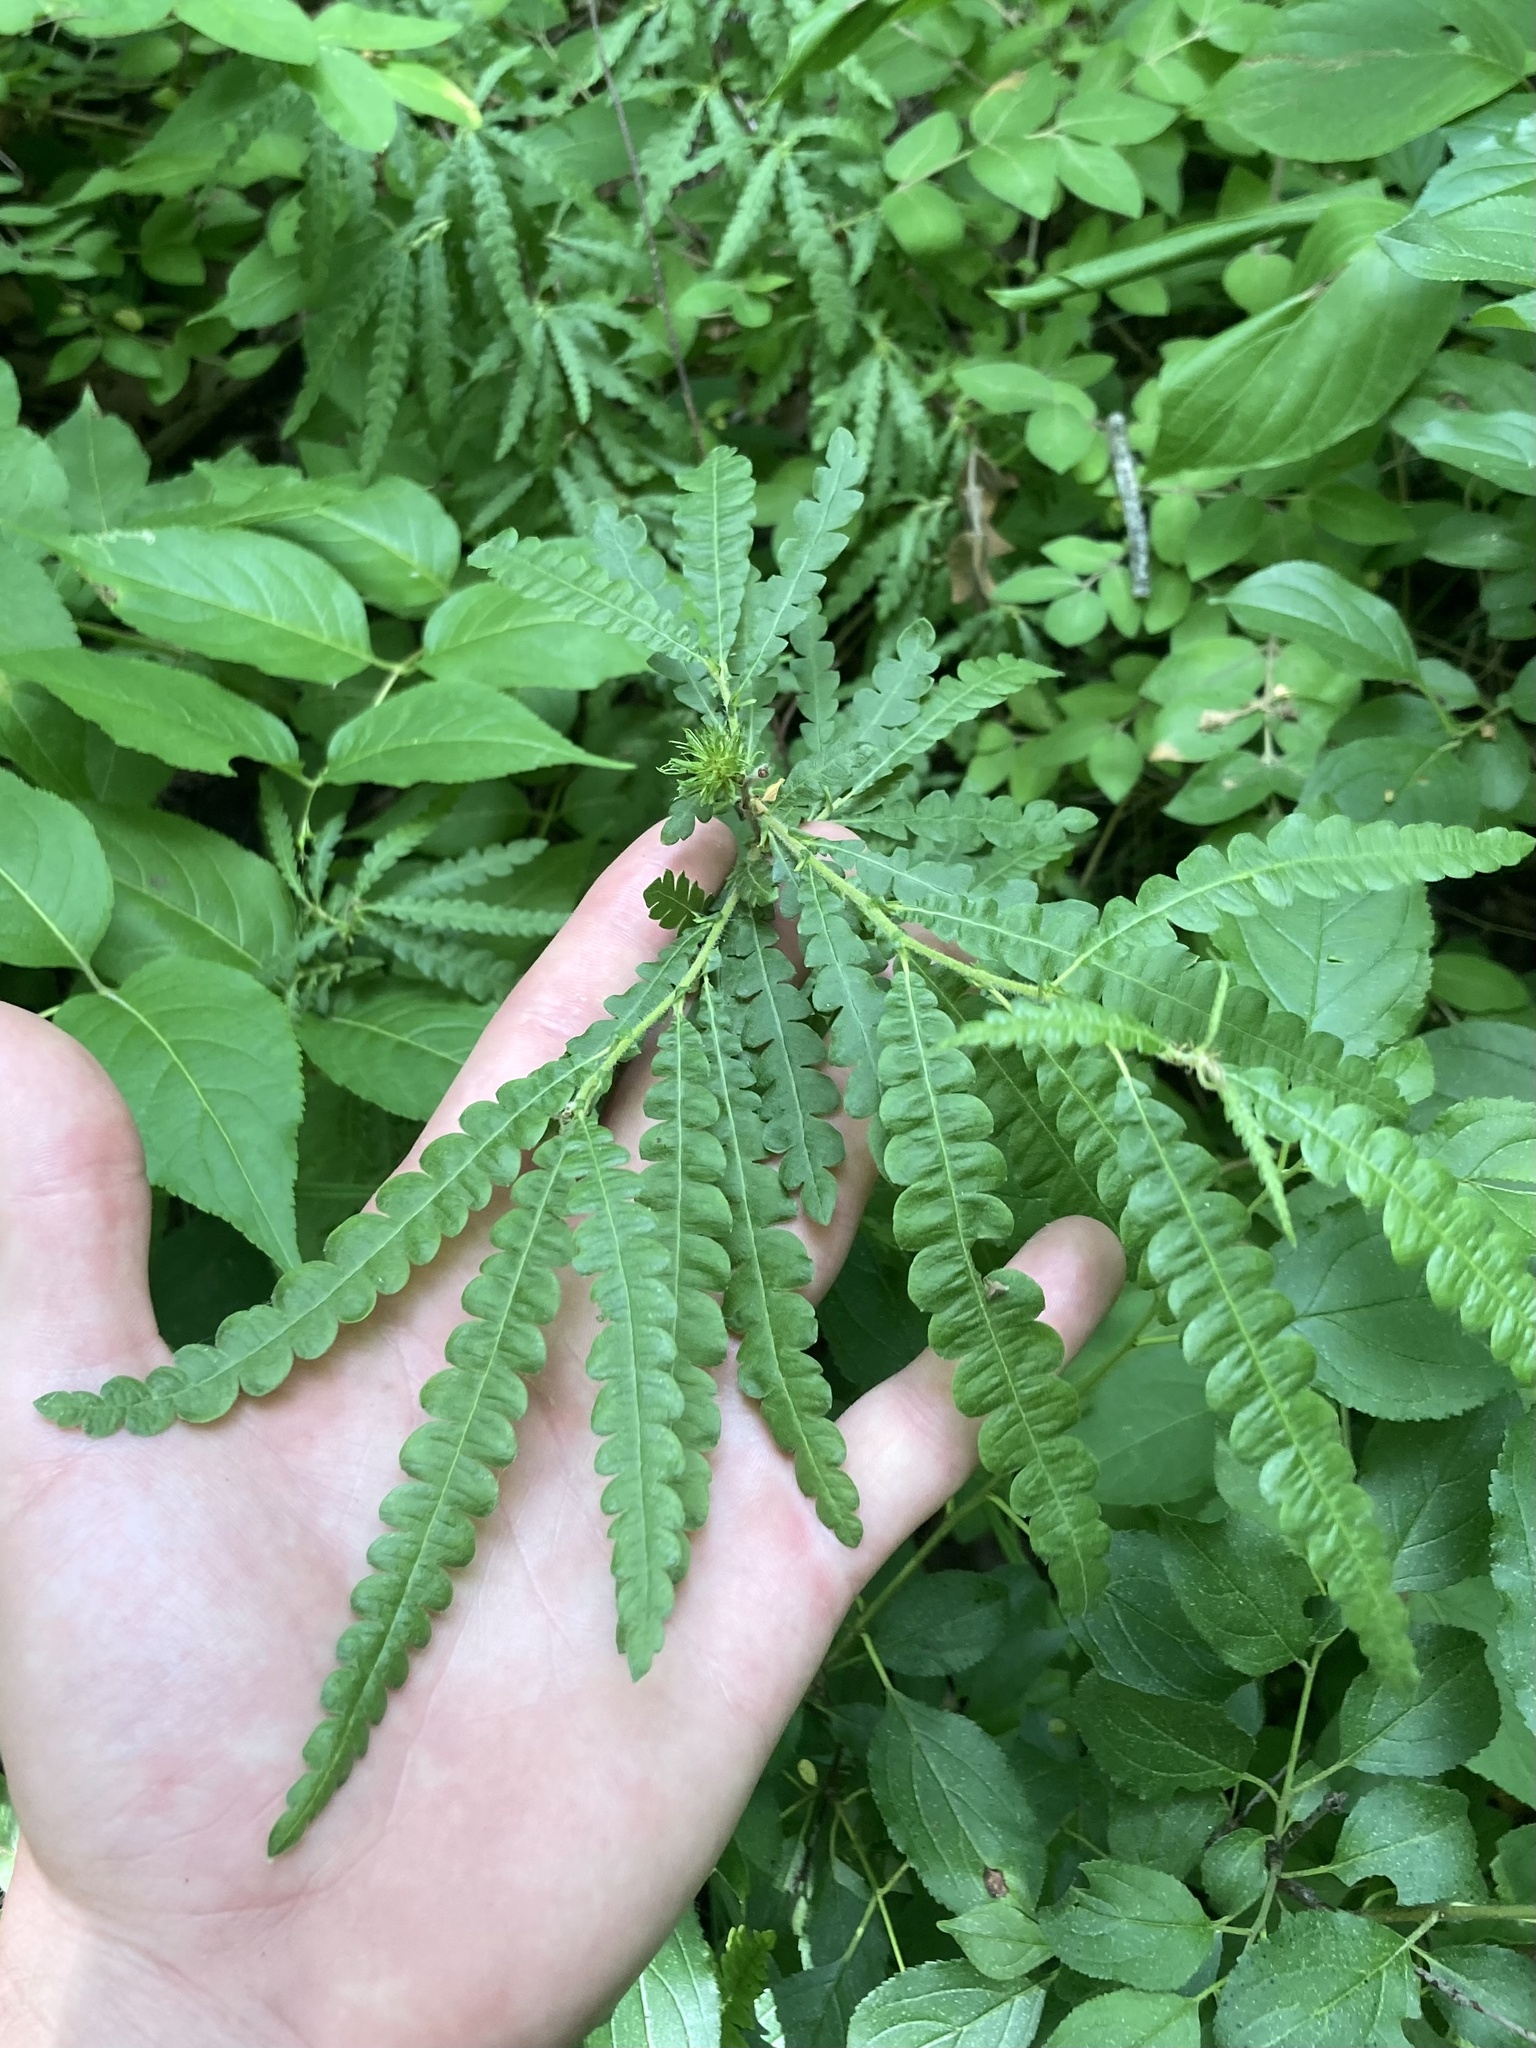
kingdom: Plantae
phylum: Tracheophyta
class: Magnoliopsida
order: Fagales
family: Myricaceae
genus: Comptonia
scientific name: Comptonia peregrina
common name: Sweet-fern
